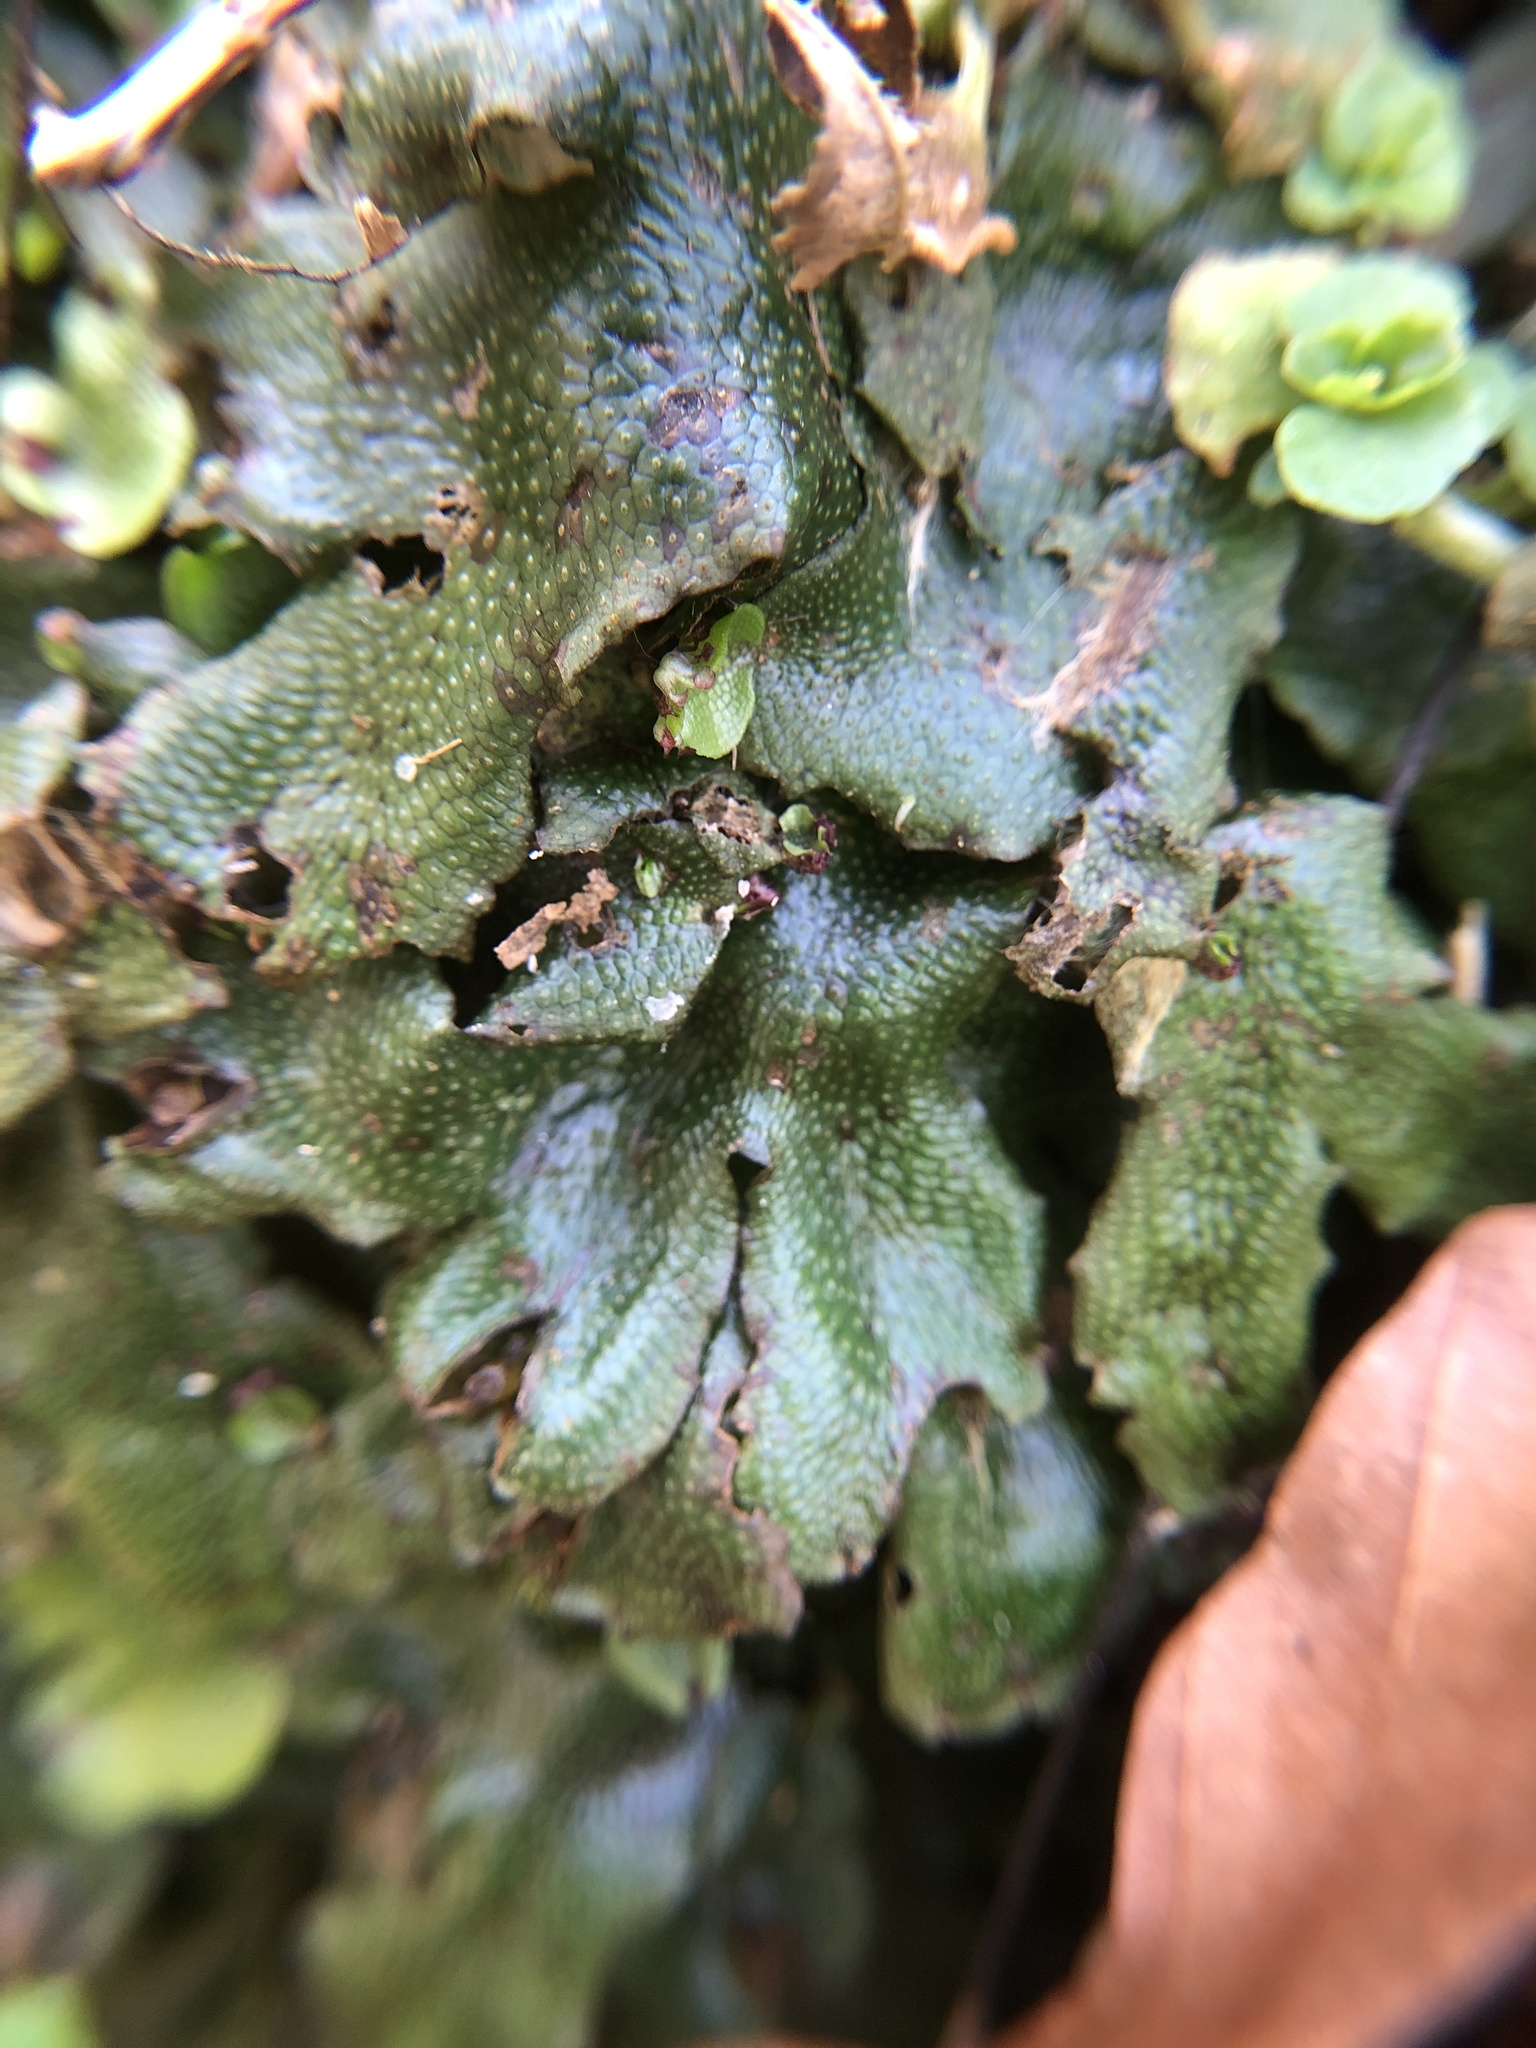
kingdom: Plantae
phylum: Marchantiophyta
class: Marchantiopsida
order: Marchantiales
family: Conocephalaceae
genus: Conocephalum
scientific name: Conocephalum conicum
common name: Great scented liverwort
